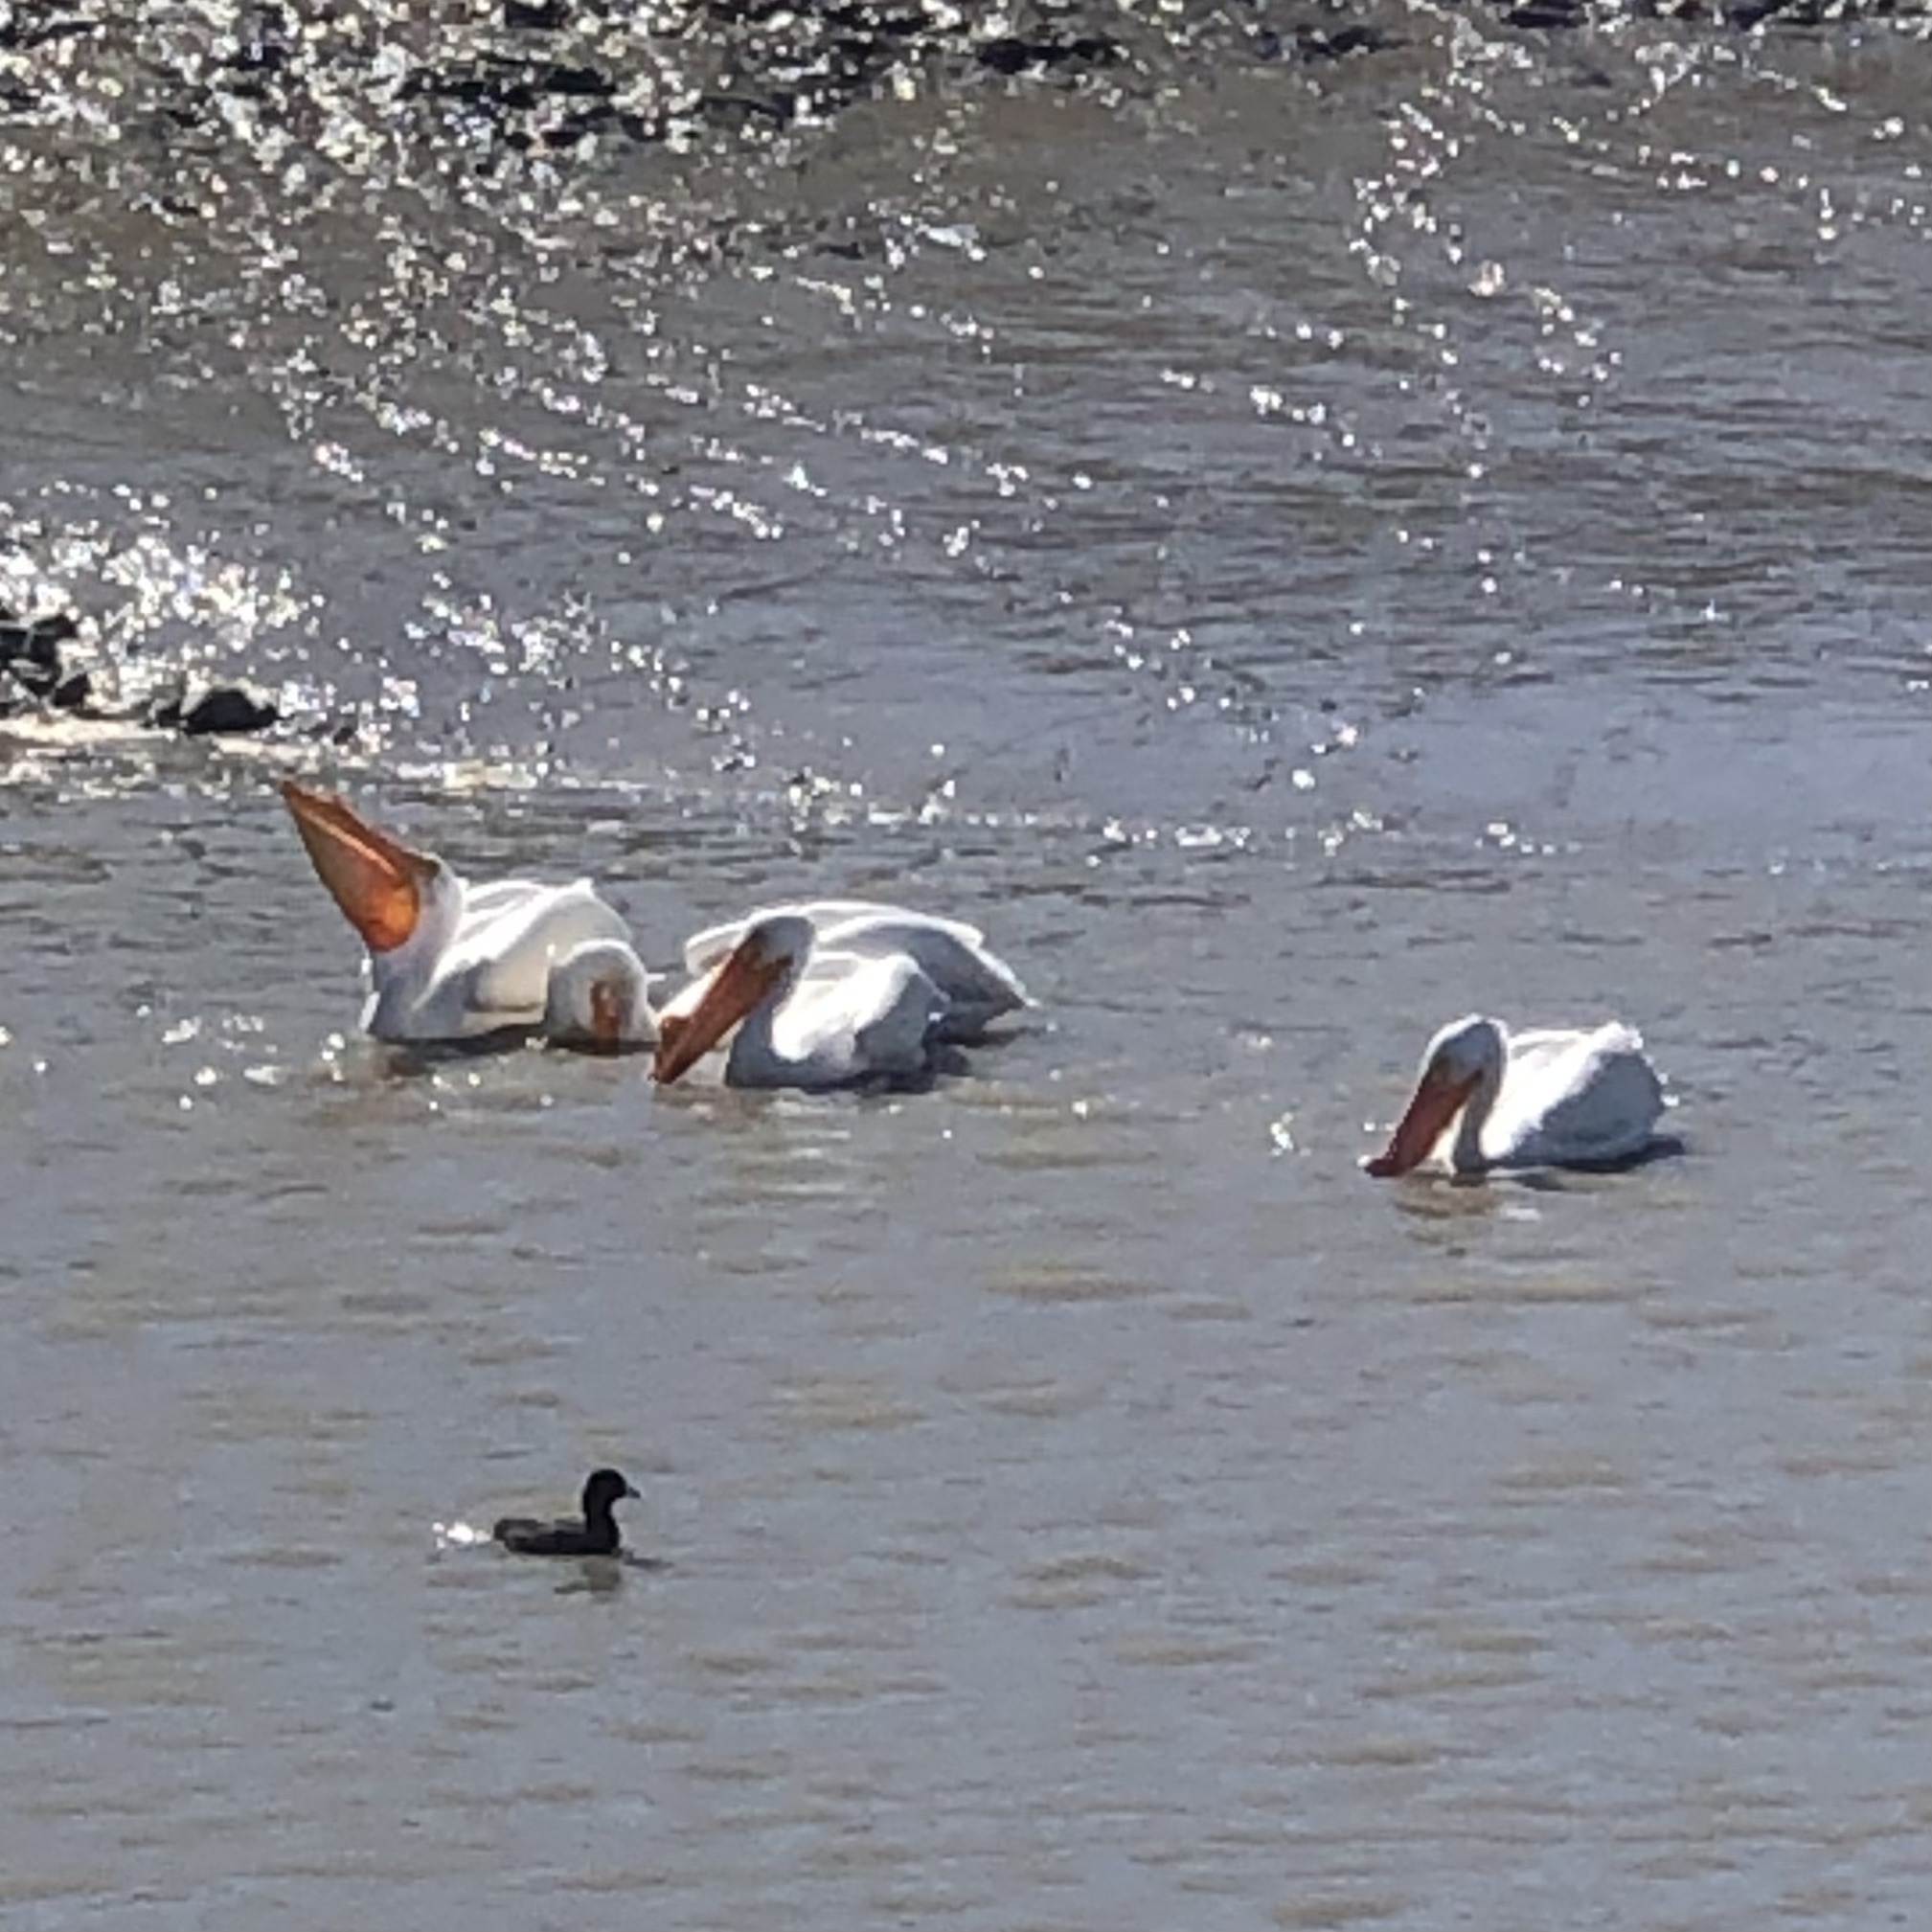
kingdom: Animalia
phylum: Chordata
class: Aves
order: Pelecaniformes
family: Pelecanidae
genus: Pelecanus
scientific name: Pelecanus erythrorhynchos
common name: American white pelican
